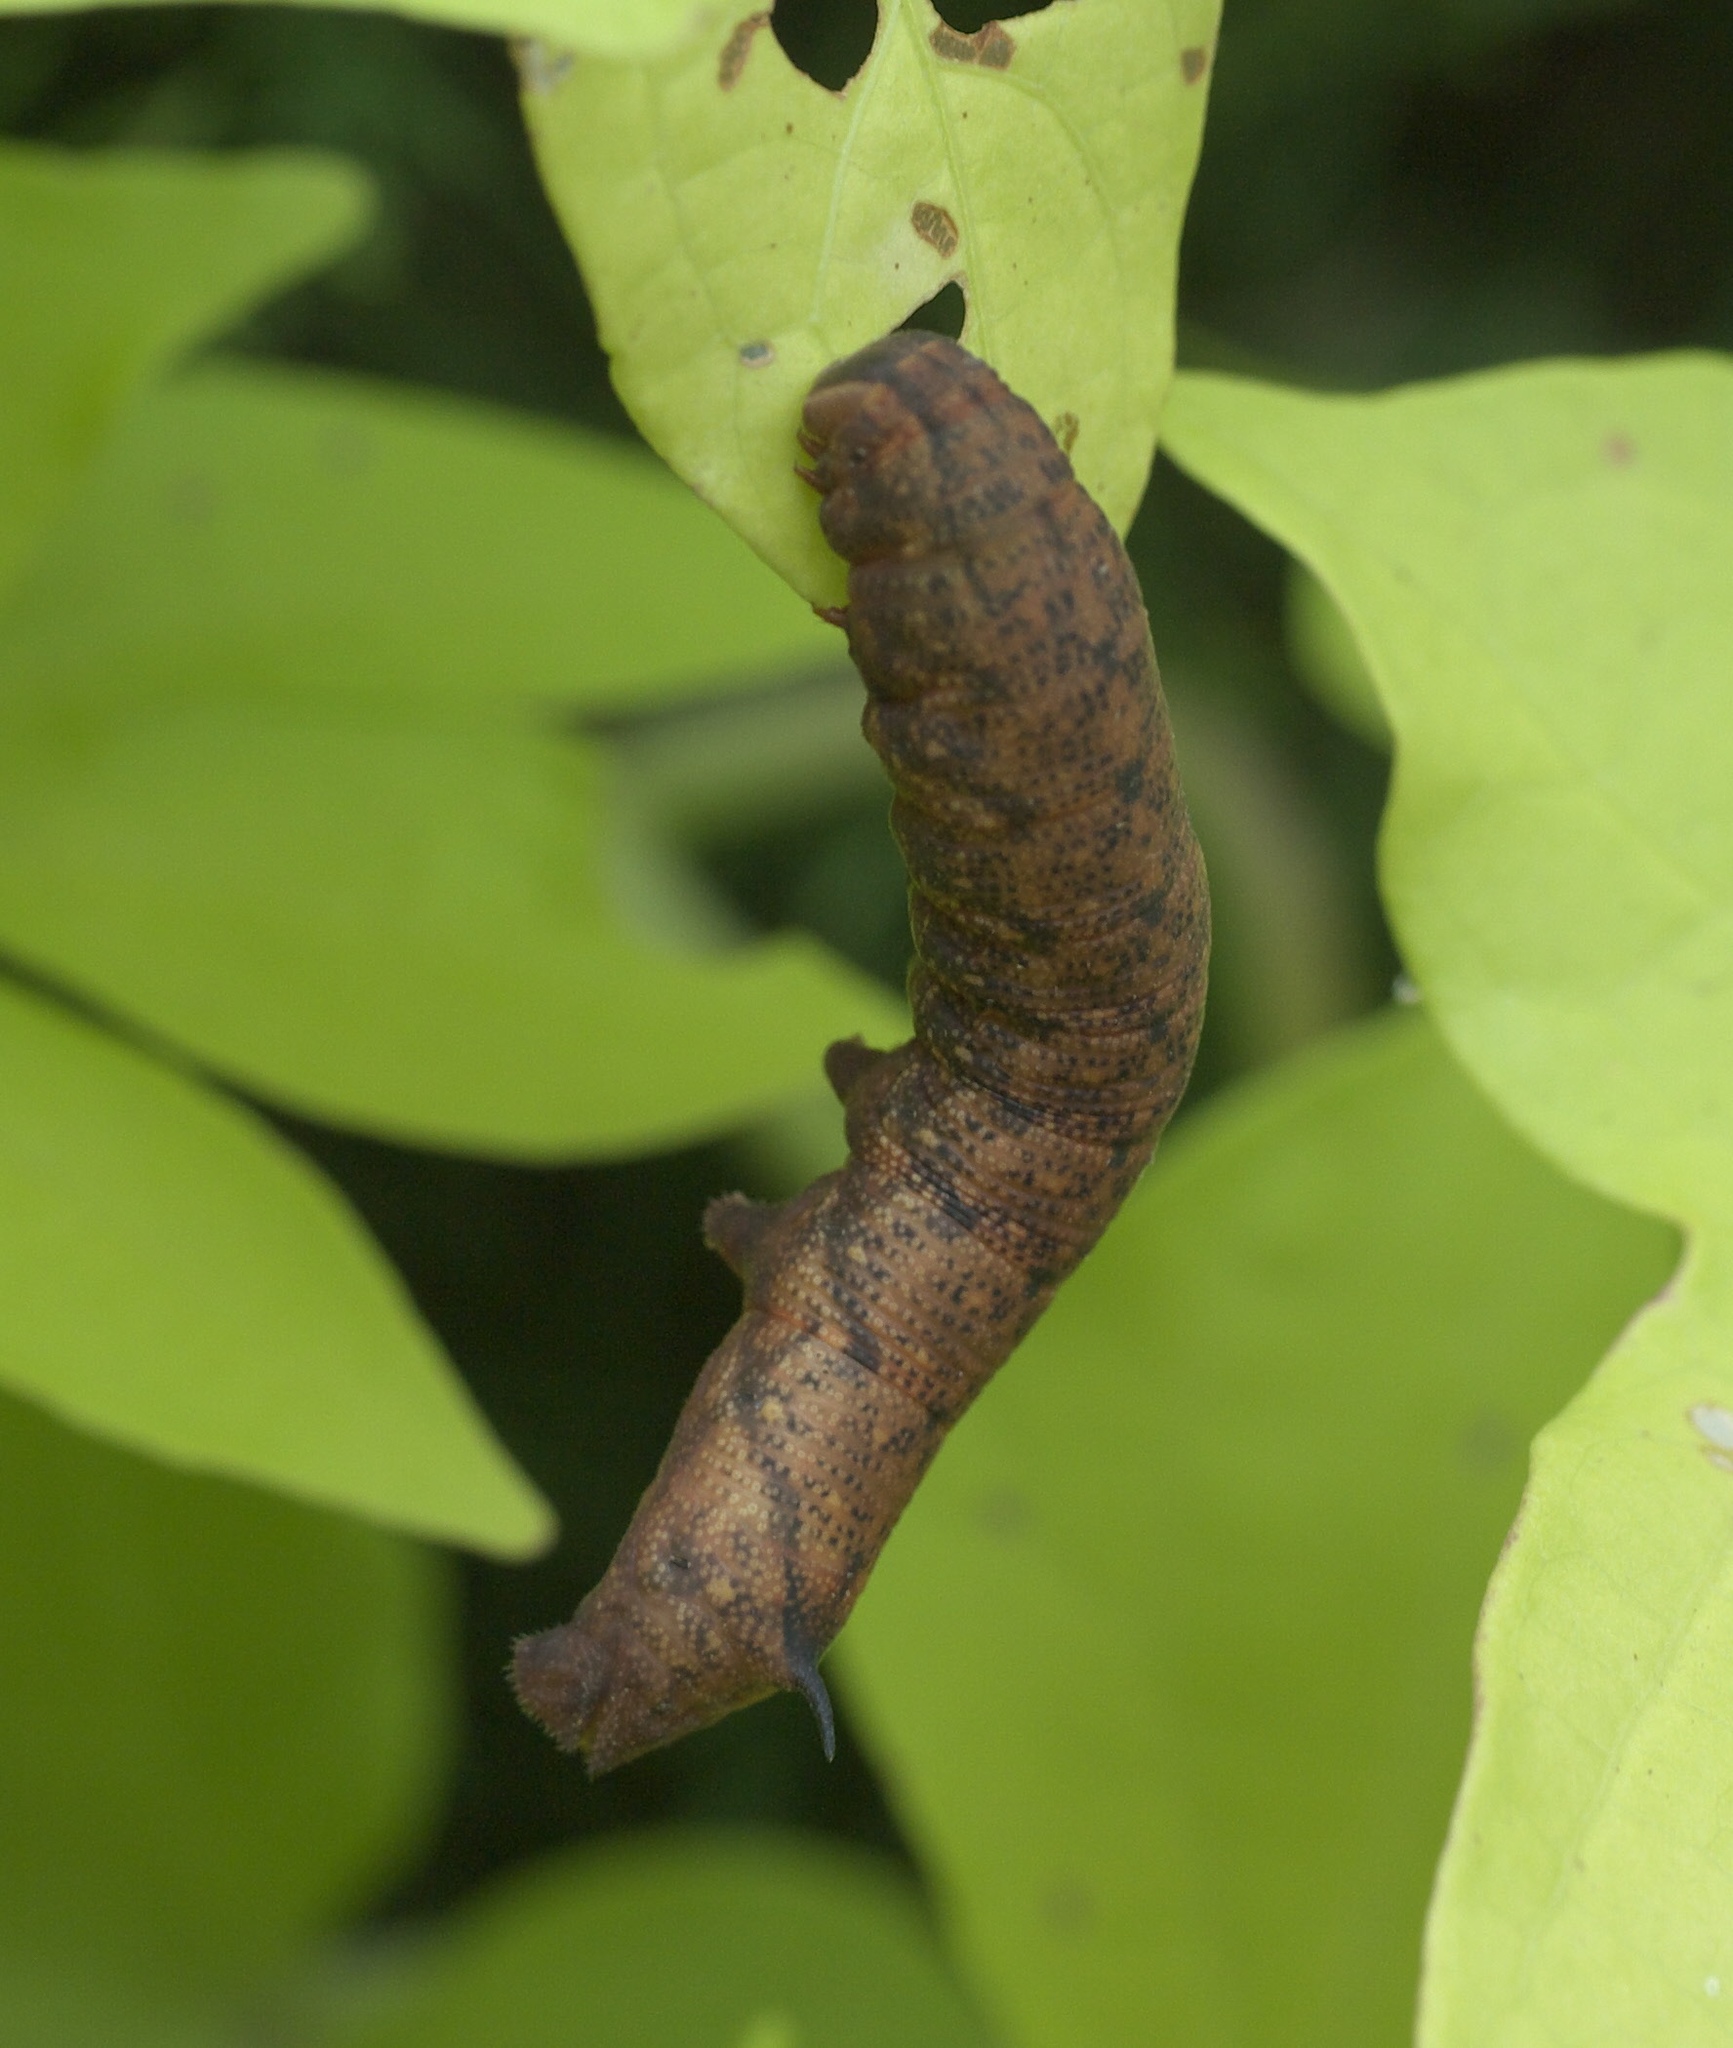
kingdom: Animalia
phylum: Arthropoda
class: Insecta
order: Lepidoptera
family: Sphingidae
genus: Amphion
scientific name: Amphion floridensis
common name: Nessus sphinx
